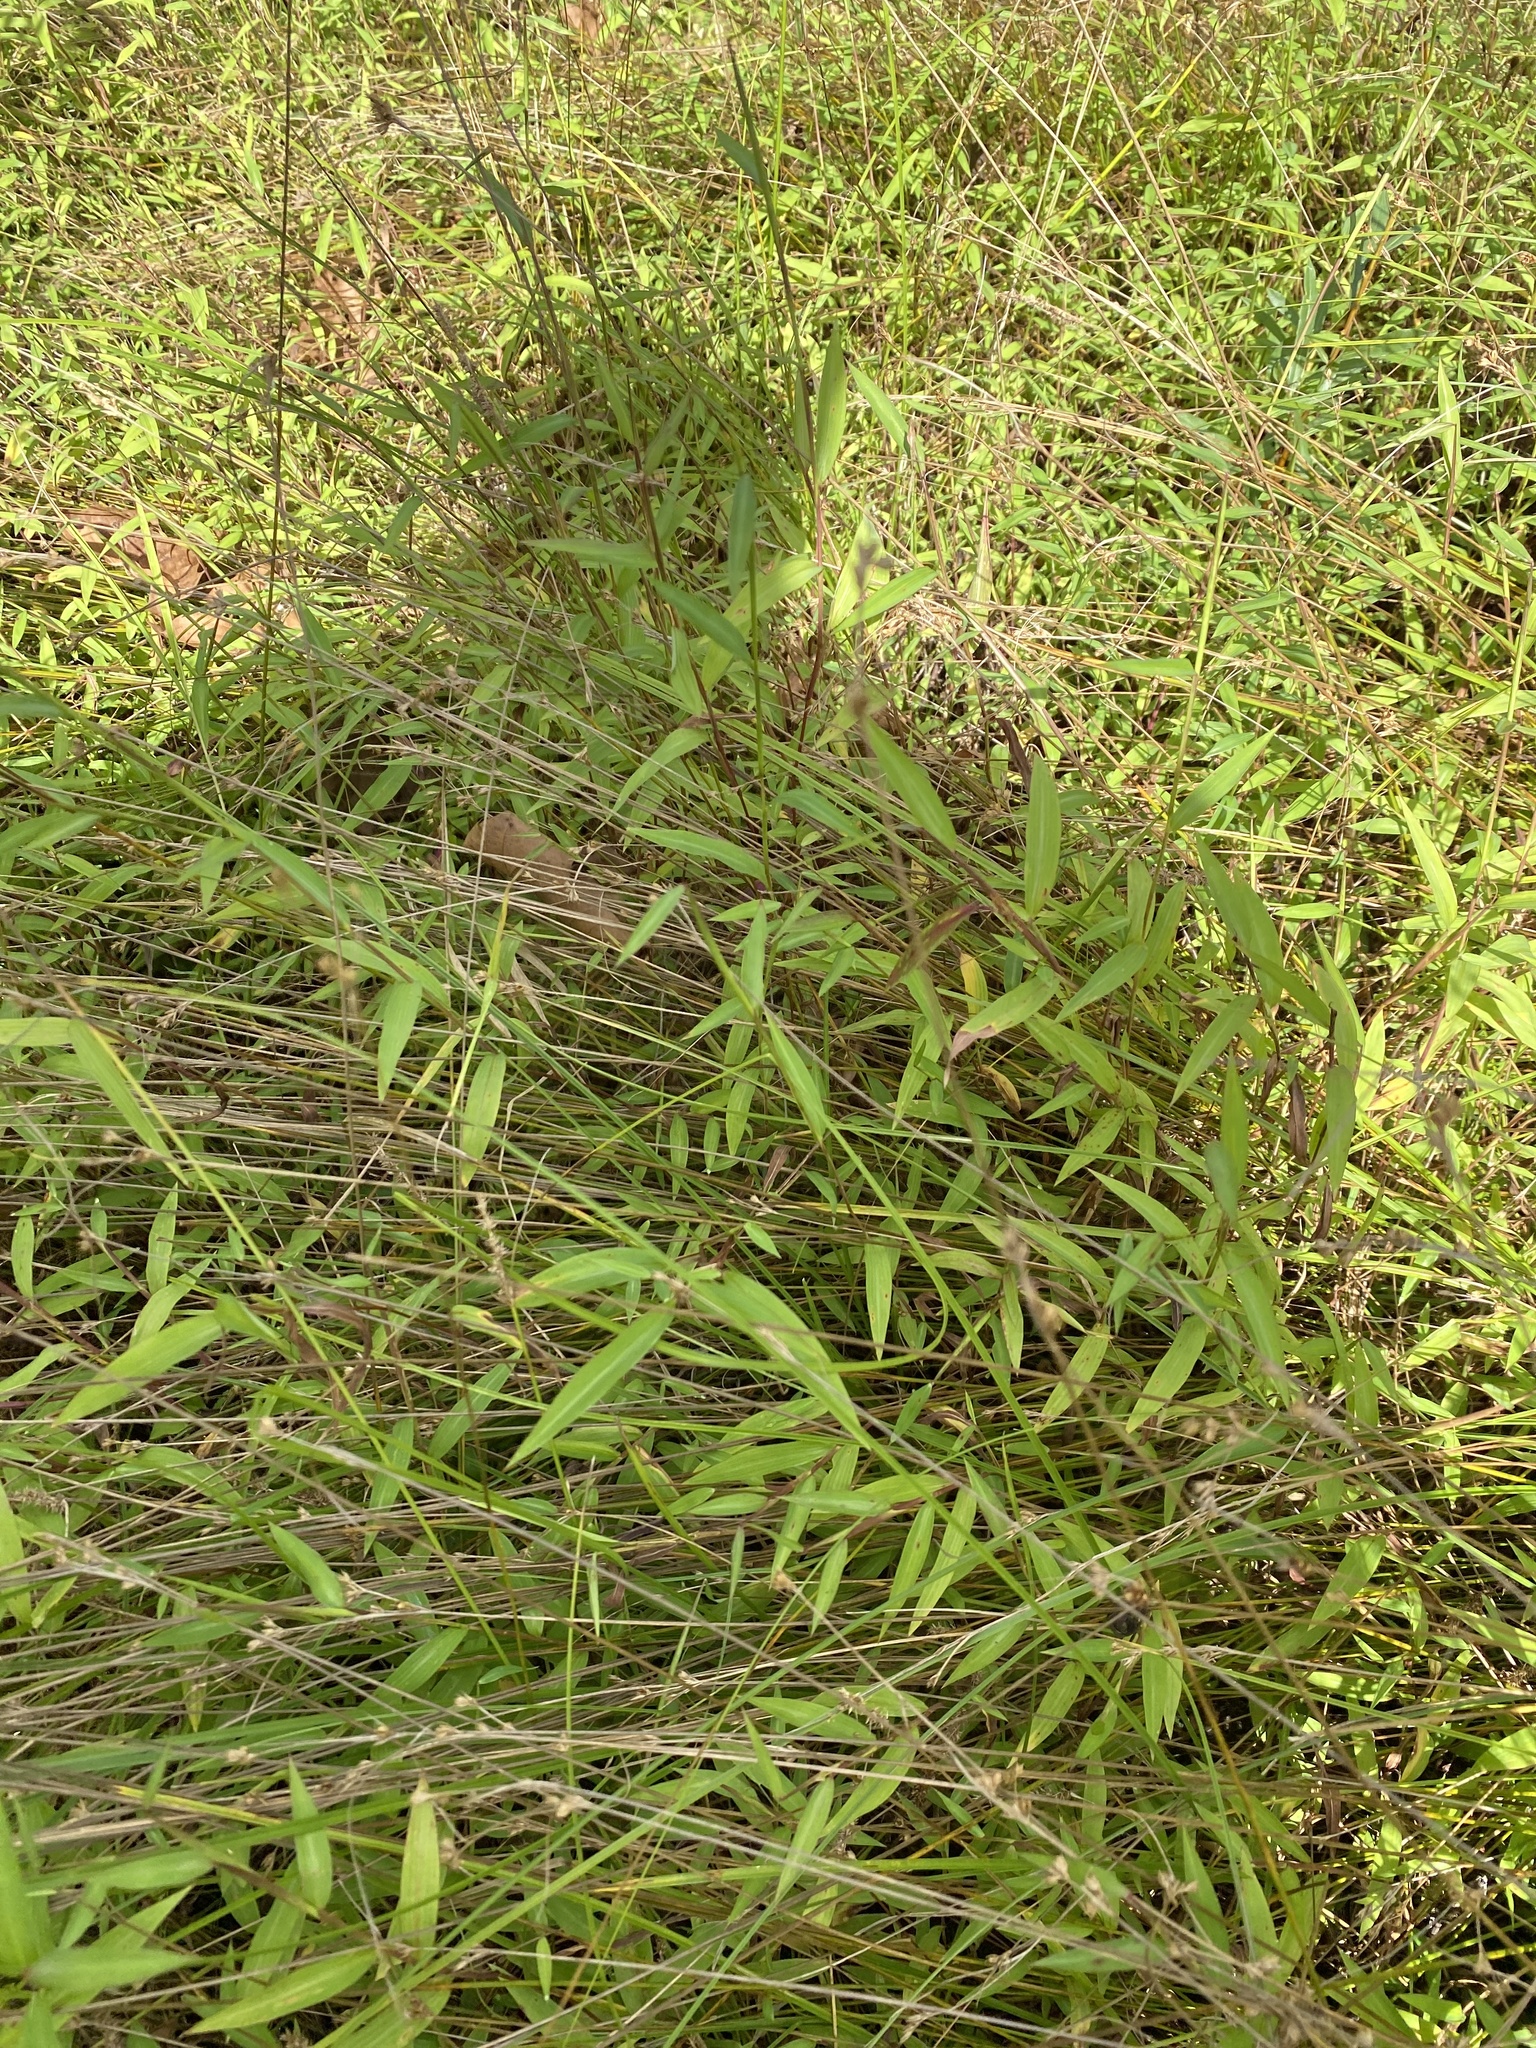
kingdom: Plantae
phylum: Tracheophyta
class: Liliopsida
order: Poales
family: Poaceae
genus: Microstegium
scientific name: Microstegium vimineum
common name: Japanese stiltgrass
